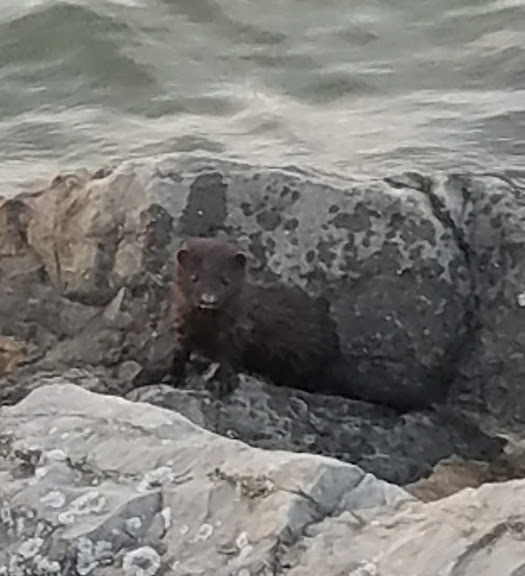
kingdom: Animalia
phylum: Chordata
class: Mammalia
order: Carnivora
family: Mustelidae
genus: Mustela
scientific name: Mustela
